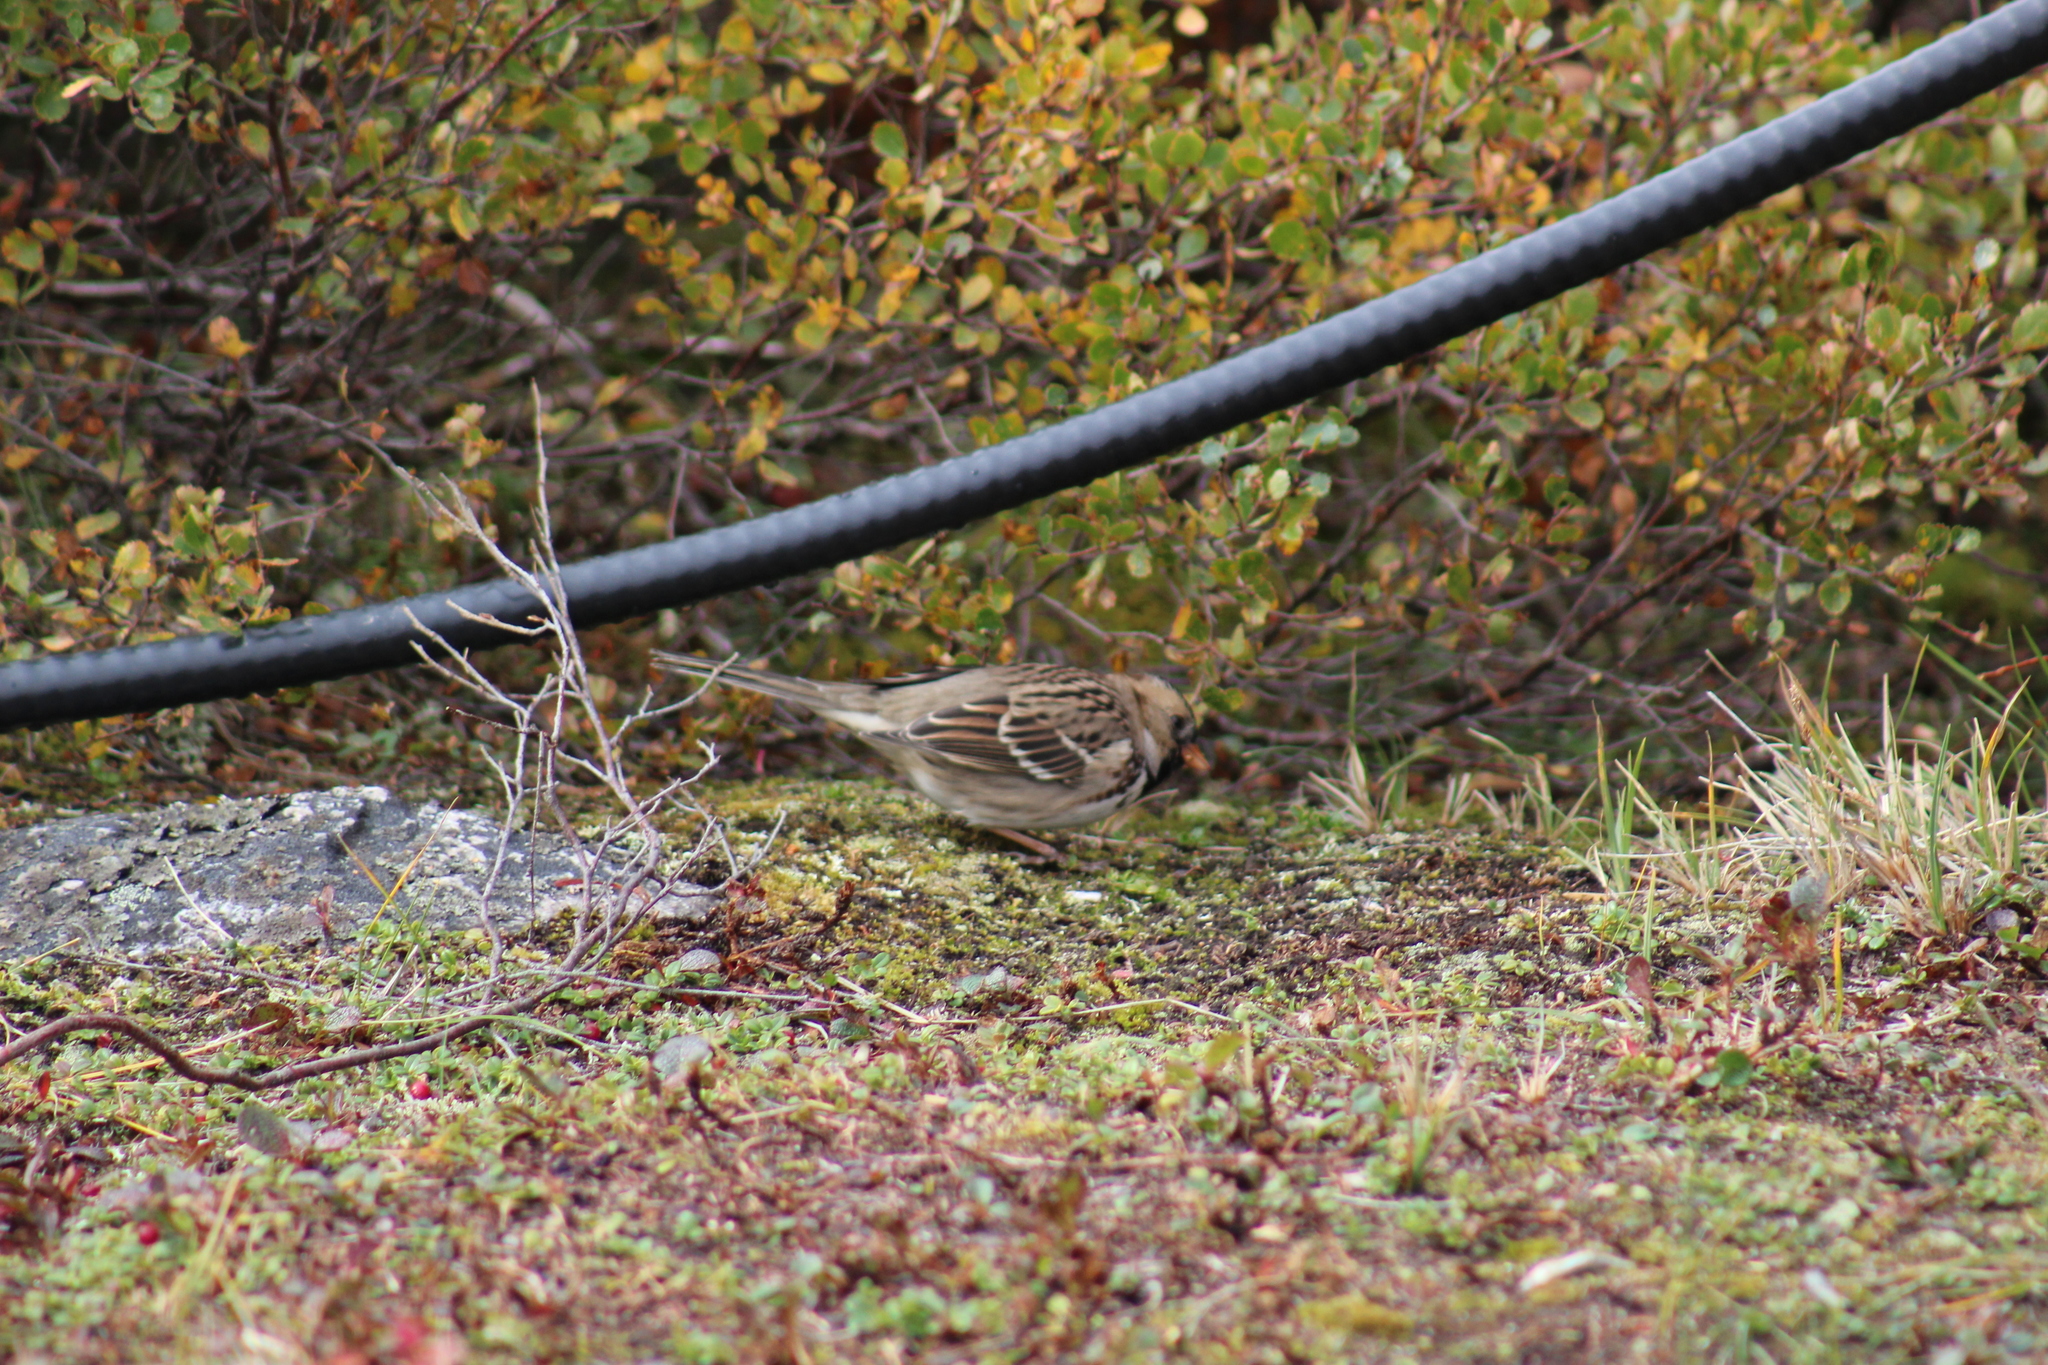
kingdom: Animalia
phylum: Chordata
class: Aves
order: Passeriformes
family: Passerellidae
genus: Zonotrichia
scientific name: Zonotrichia querula
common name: Harris's sparrow
